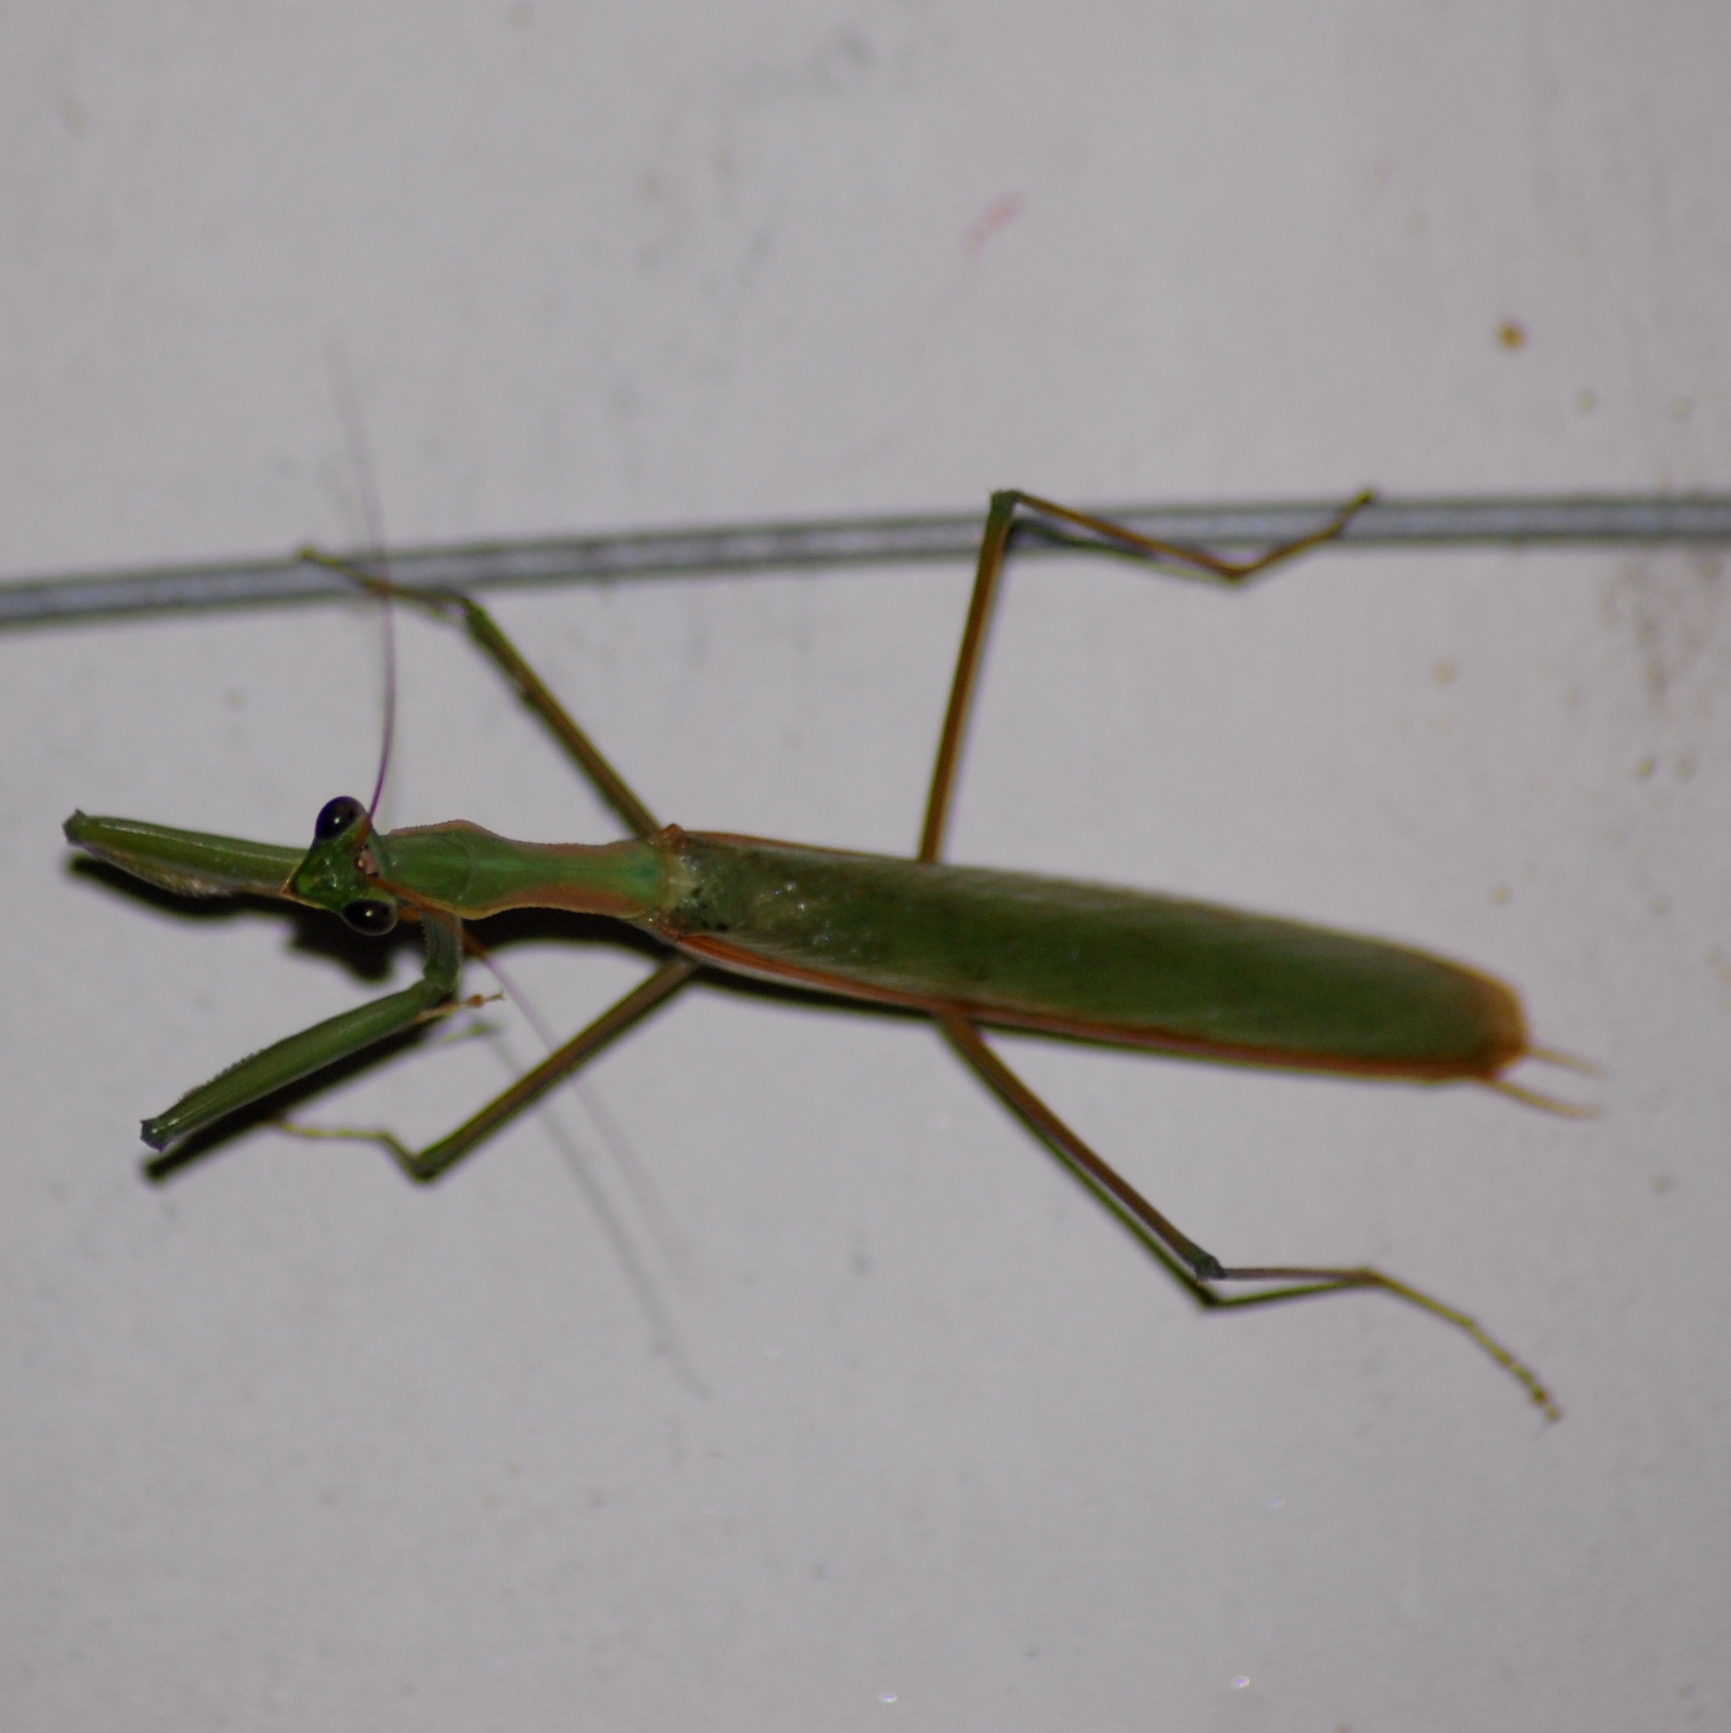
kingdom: Animalia
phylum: Arthropoda
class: Insecta
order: Mantodea
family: Coptopterygidae
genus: Coptopteryx
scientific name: Coptopteryx argentina
